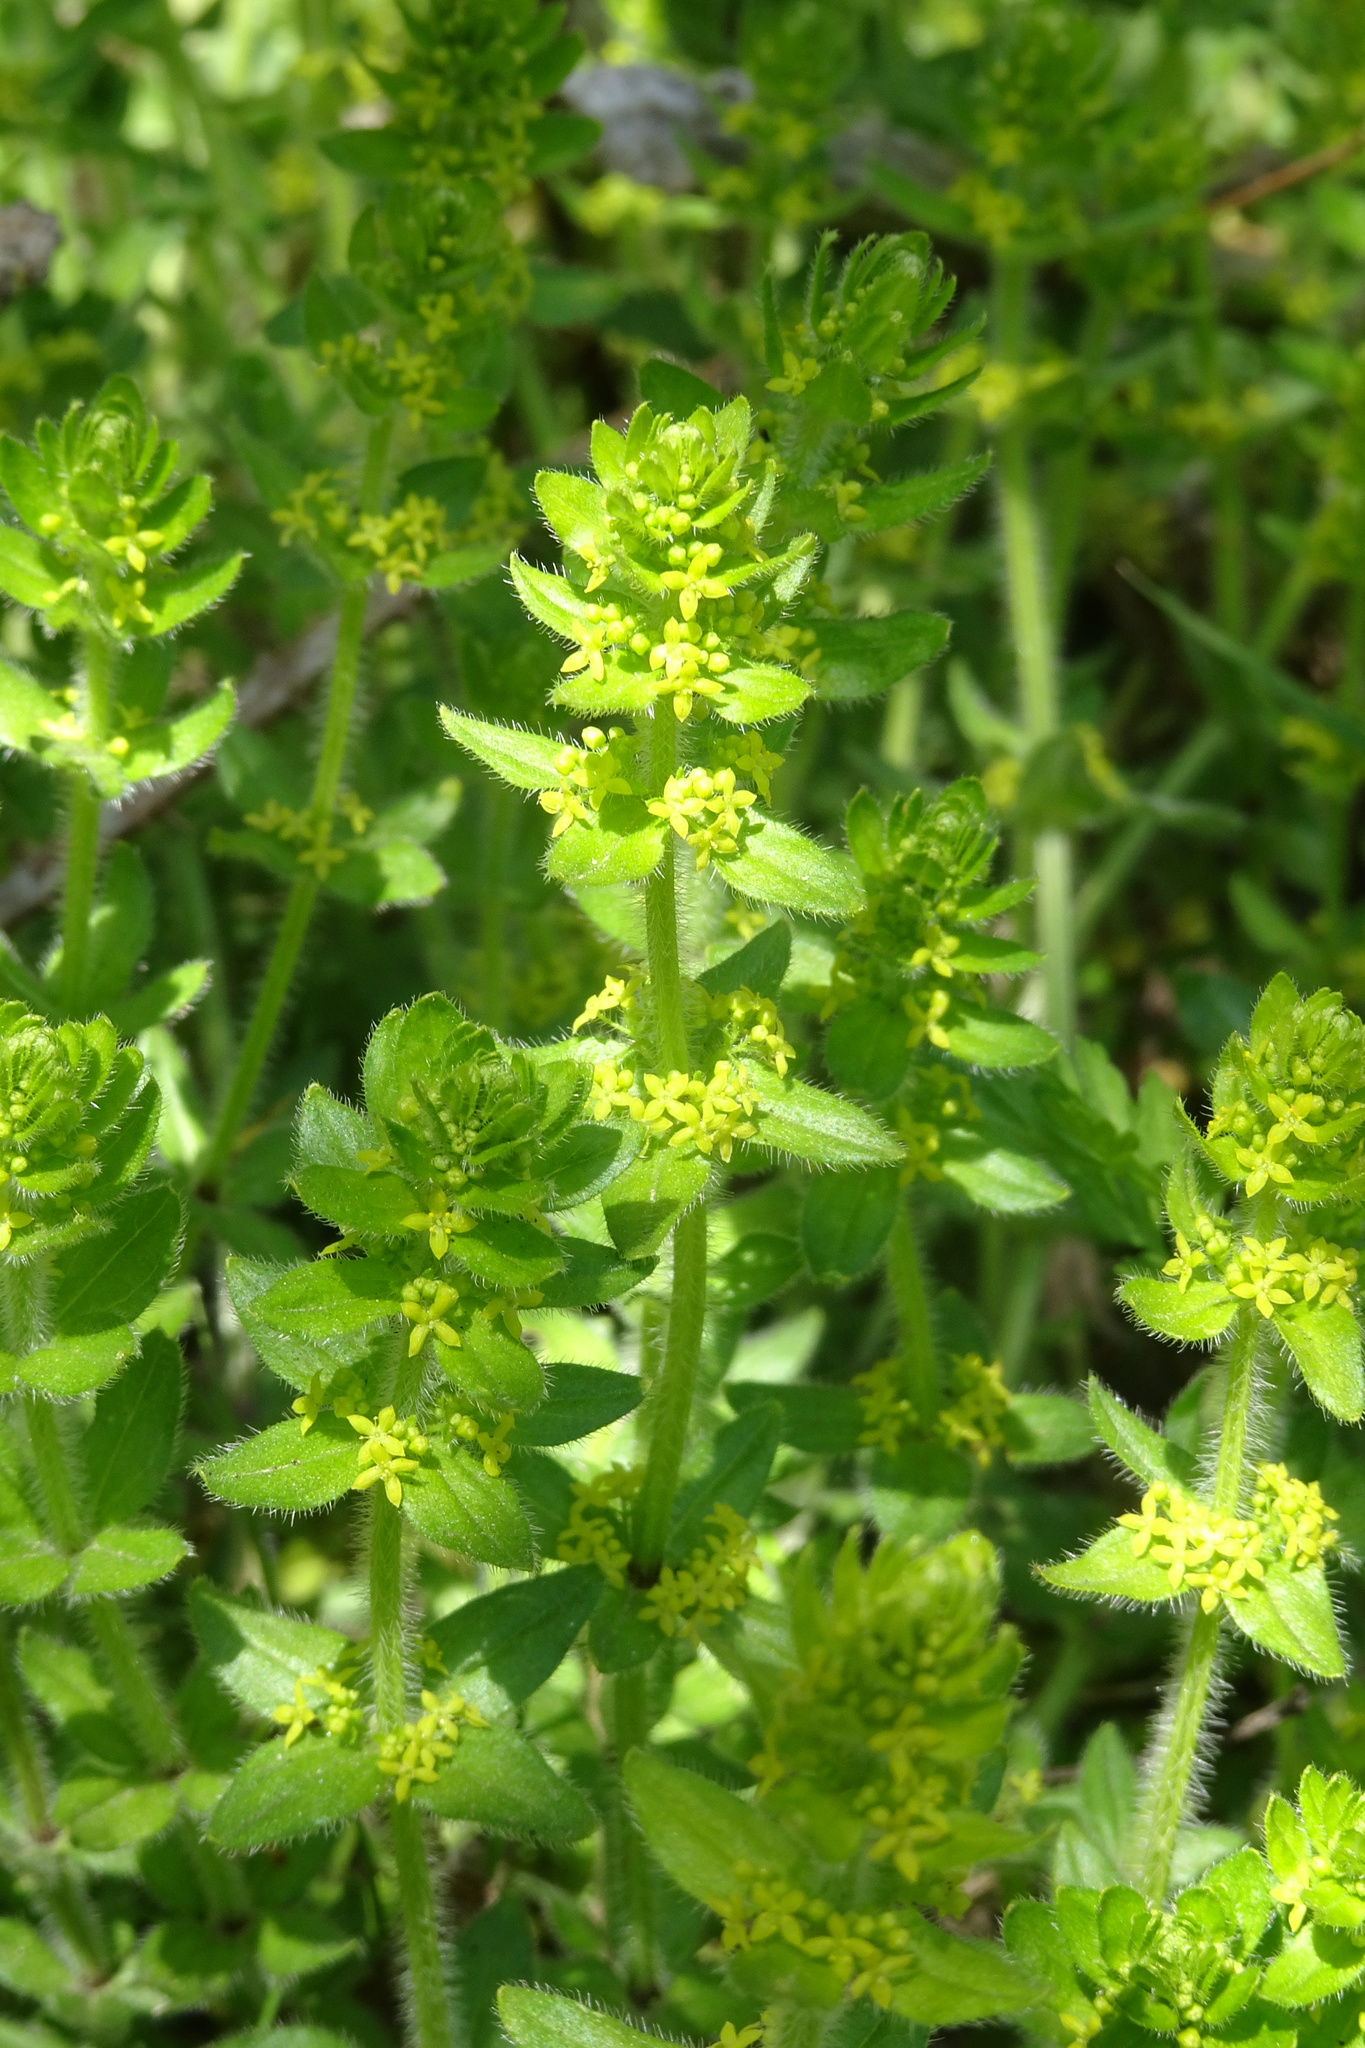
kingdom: Plantae
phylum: Tracheophyta
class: Magnoliopsida
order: Gentianales
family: Rubiaceae
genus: Cruciata
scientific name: Cruciata laevipes
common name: Crosswort
